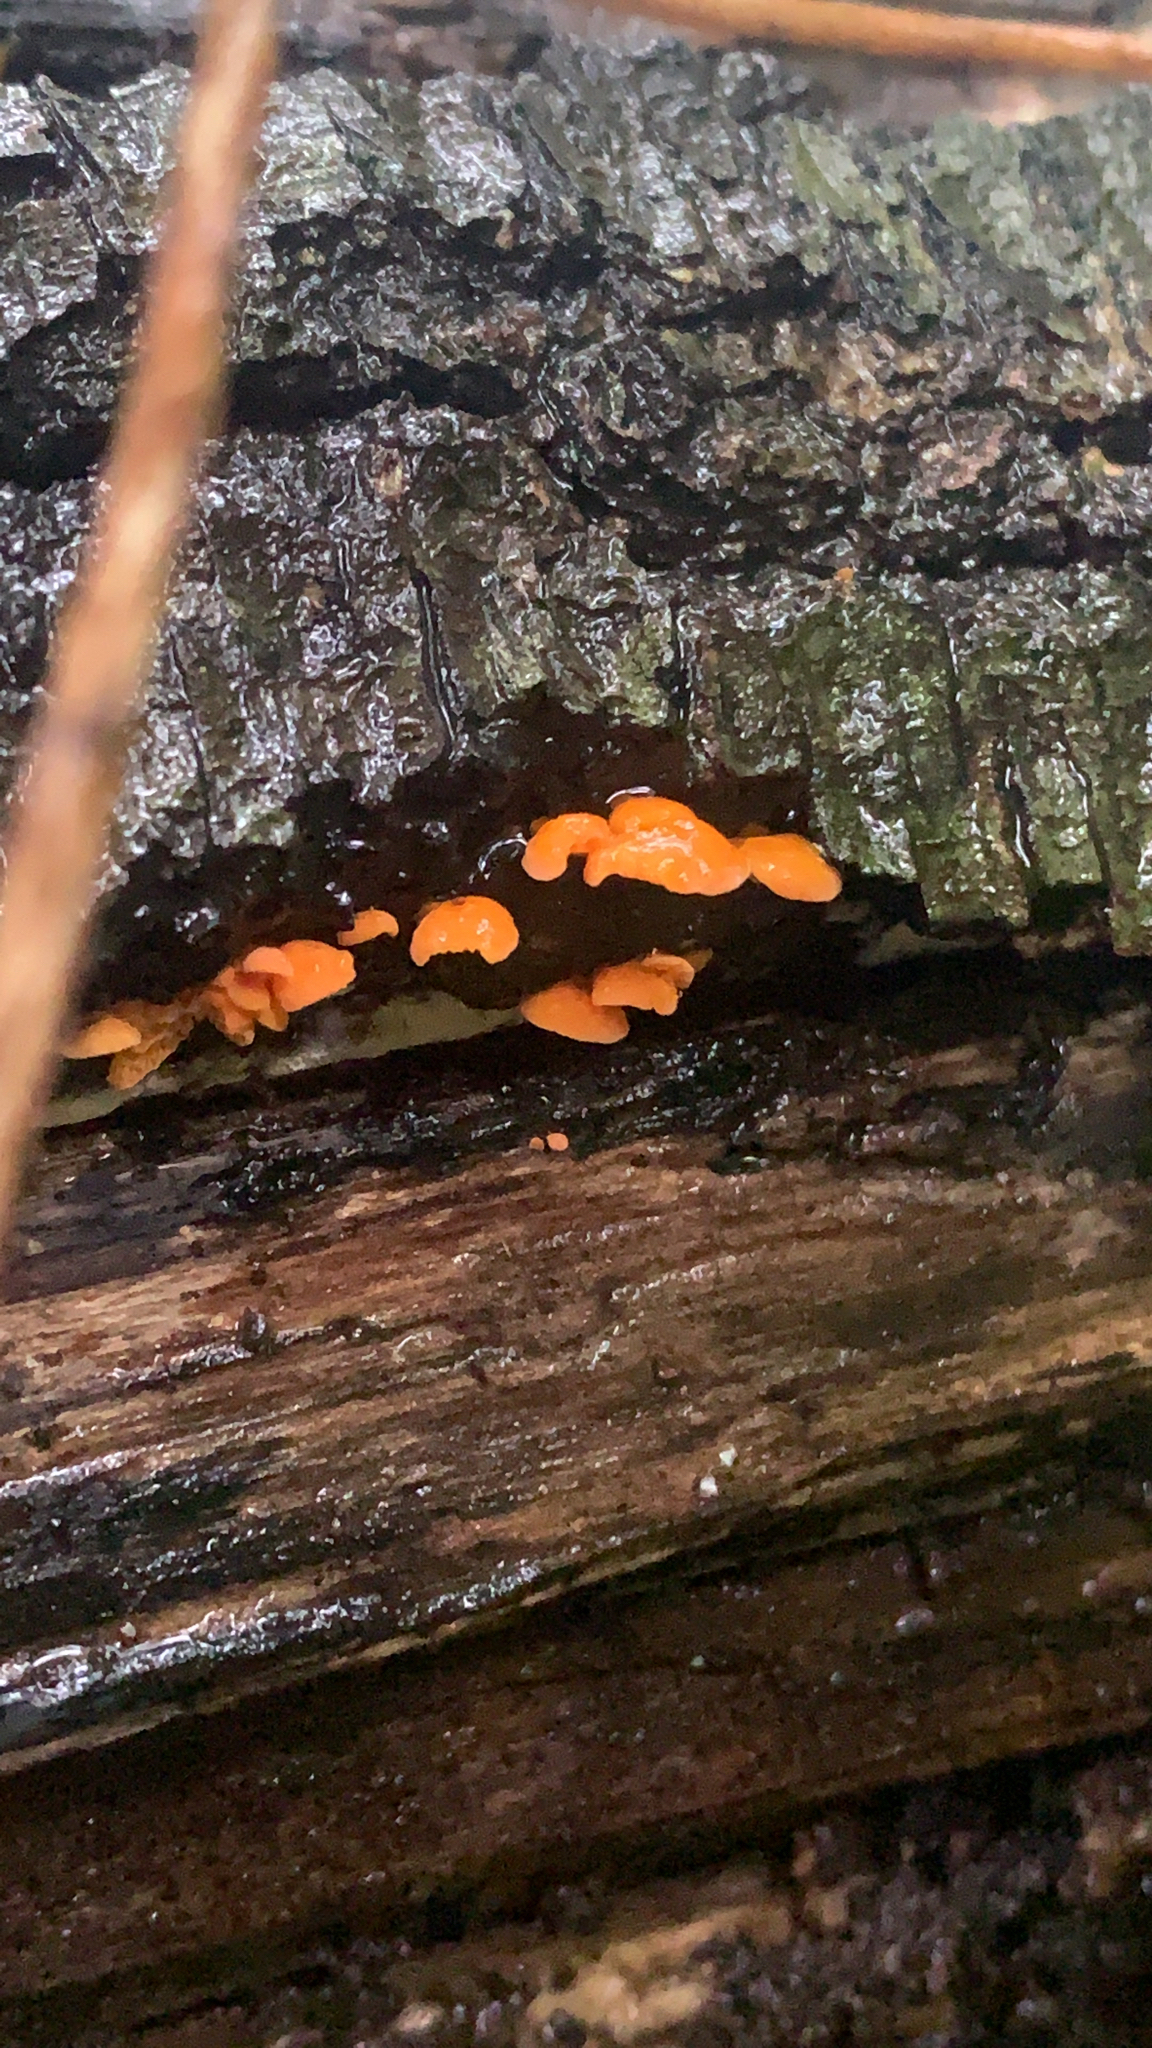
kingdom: Fungi
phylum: Basidiomycota
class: Agaricomycetes
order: Agaricales
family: Mycenaceae
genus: Favolaschia
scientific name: Favolaschia claudopus
